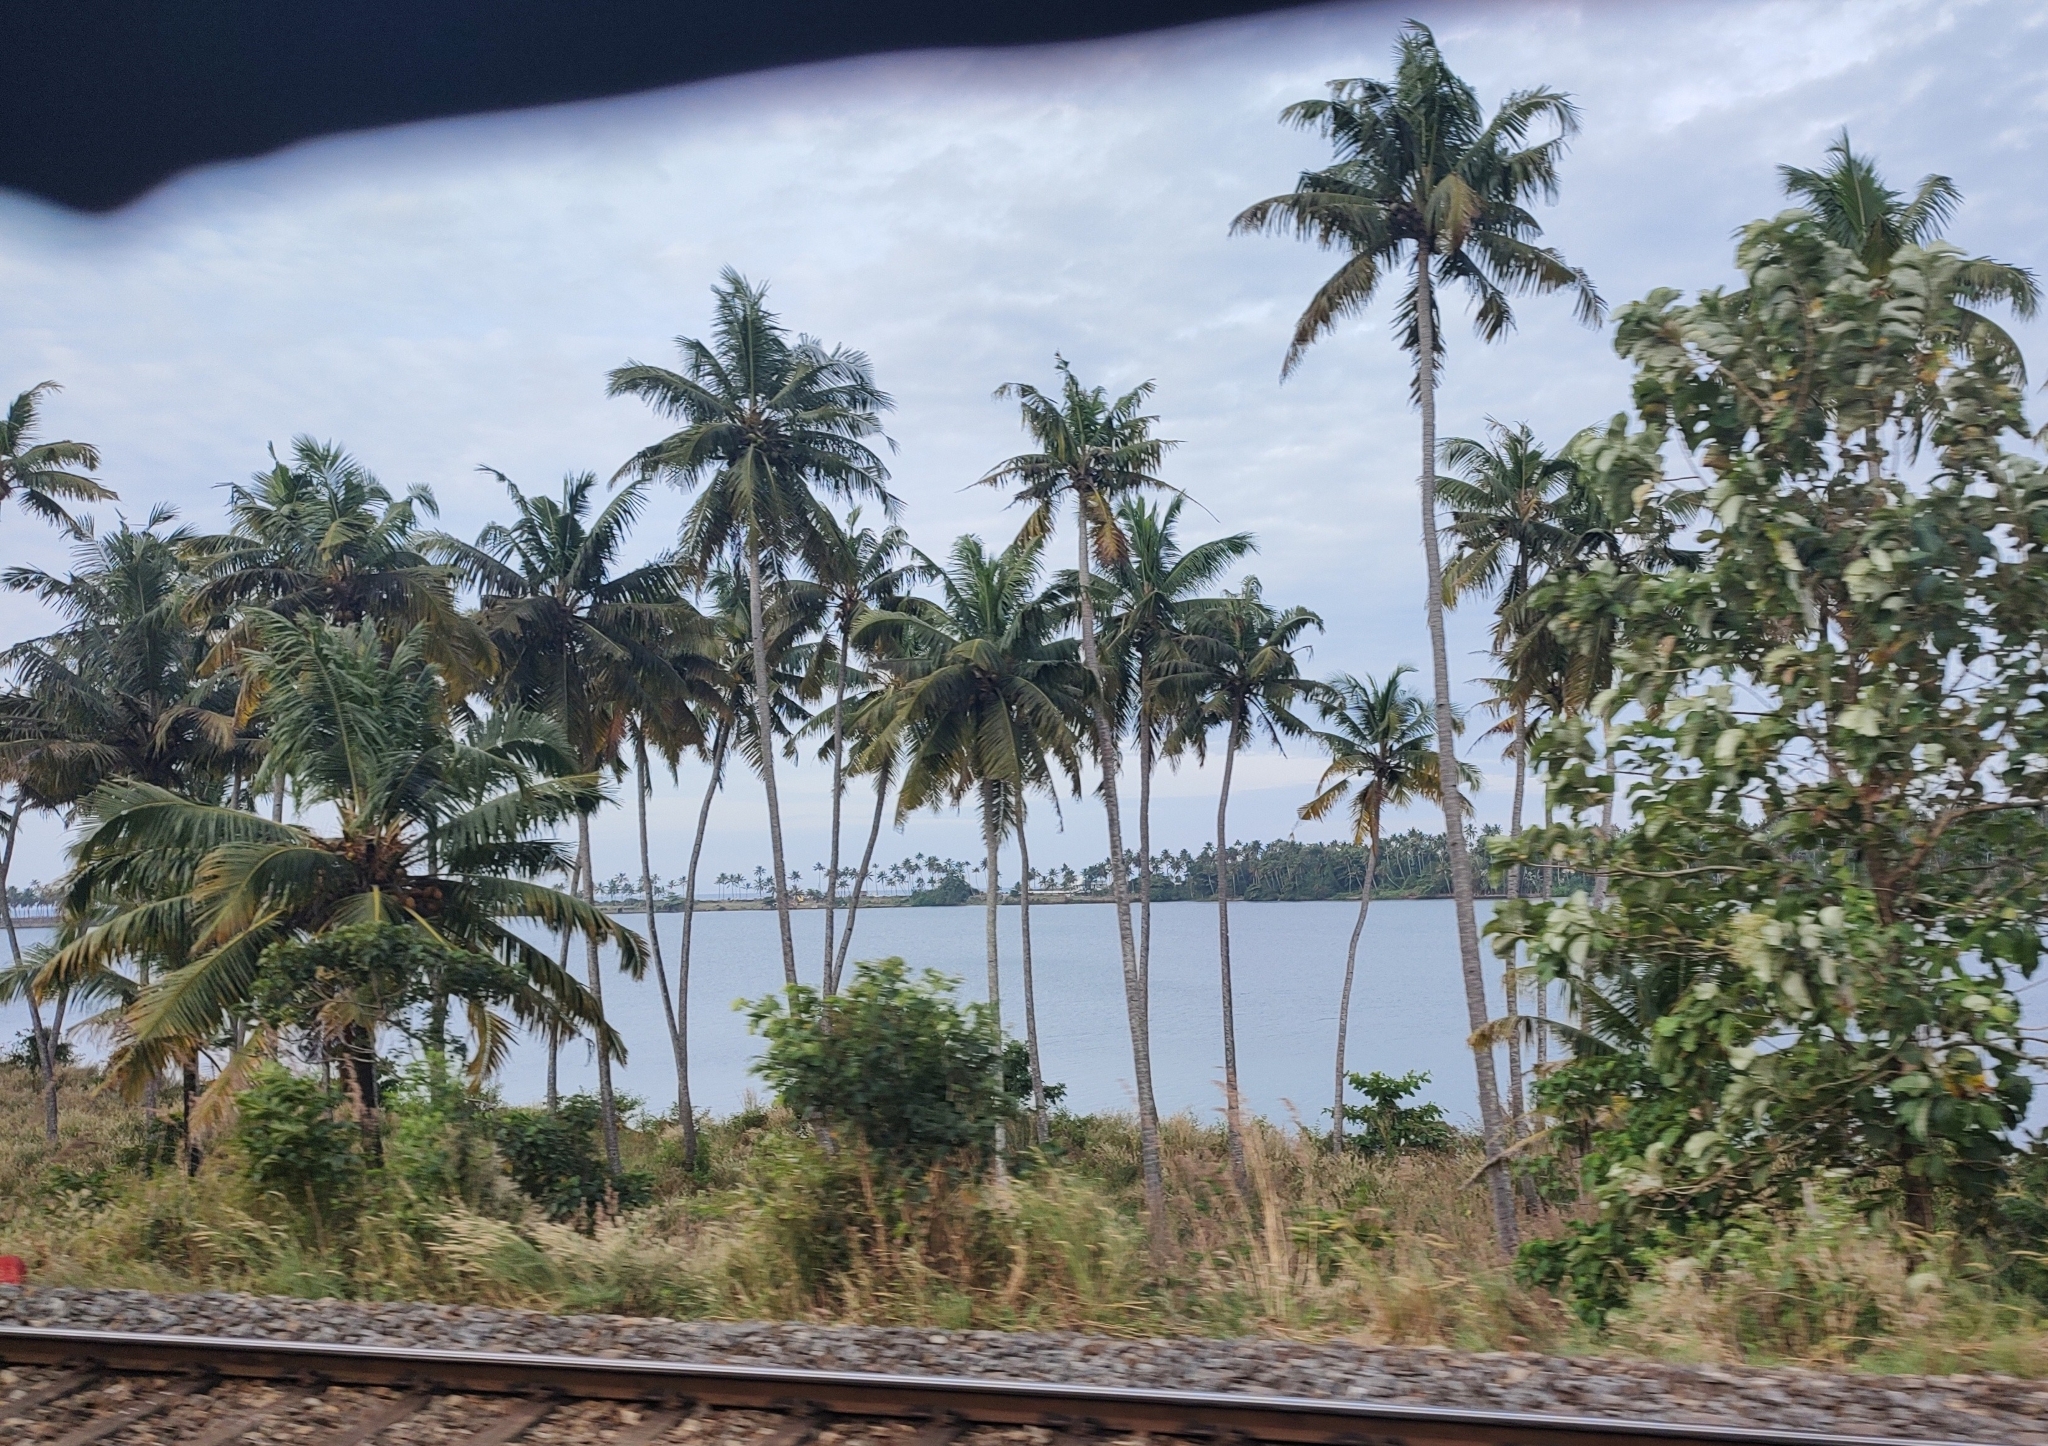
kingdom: Plantae
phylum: Tracheophyta
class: Liliopsida
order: Arecales
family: Arecaceae
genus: Cocos
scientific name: Cocos nucifera
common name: Coconut palm
